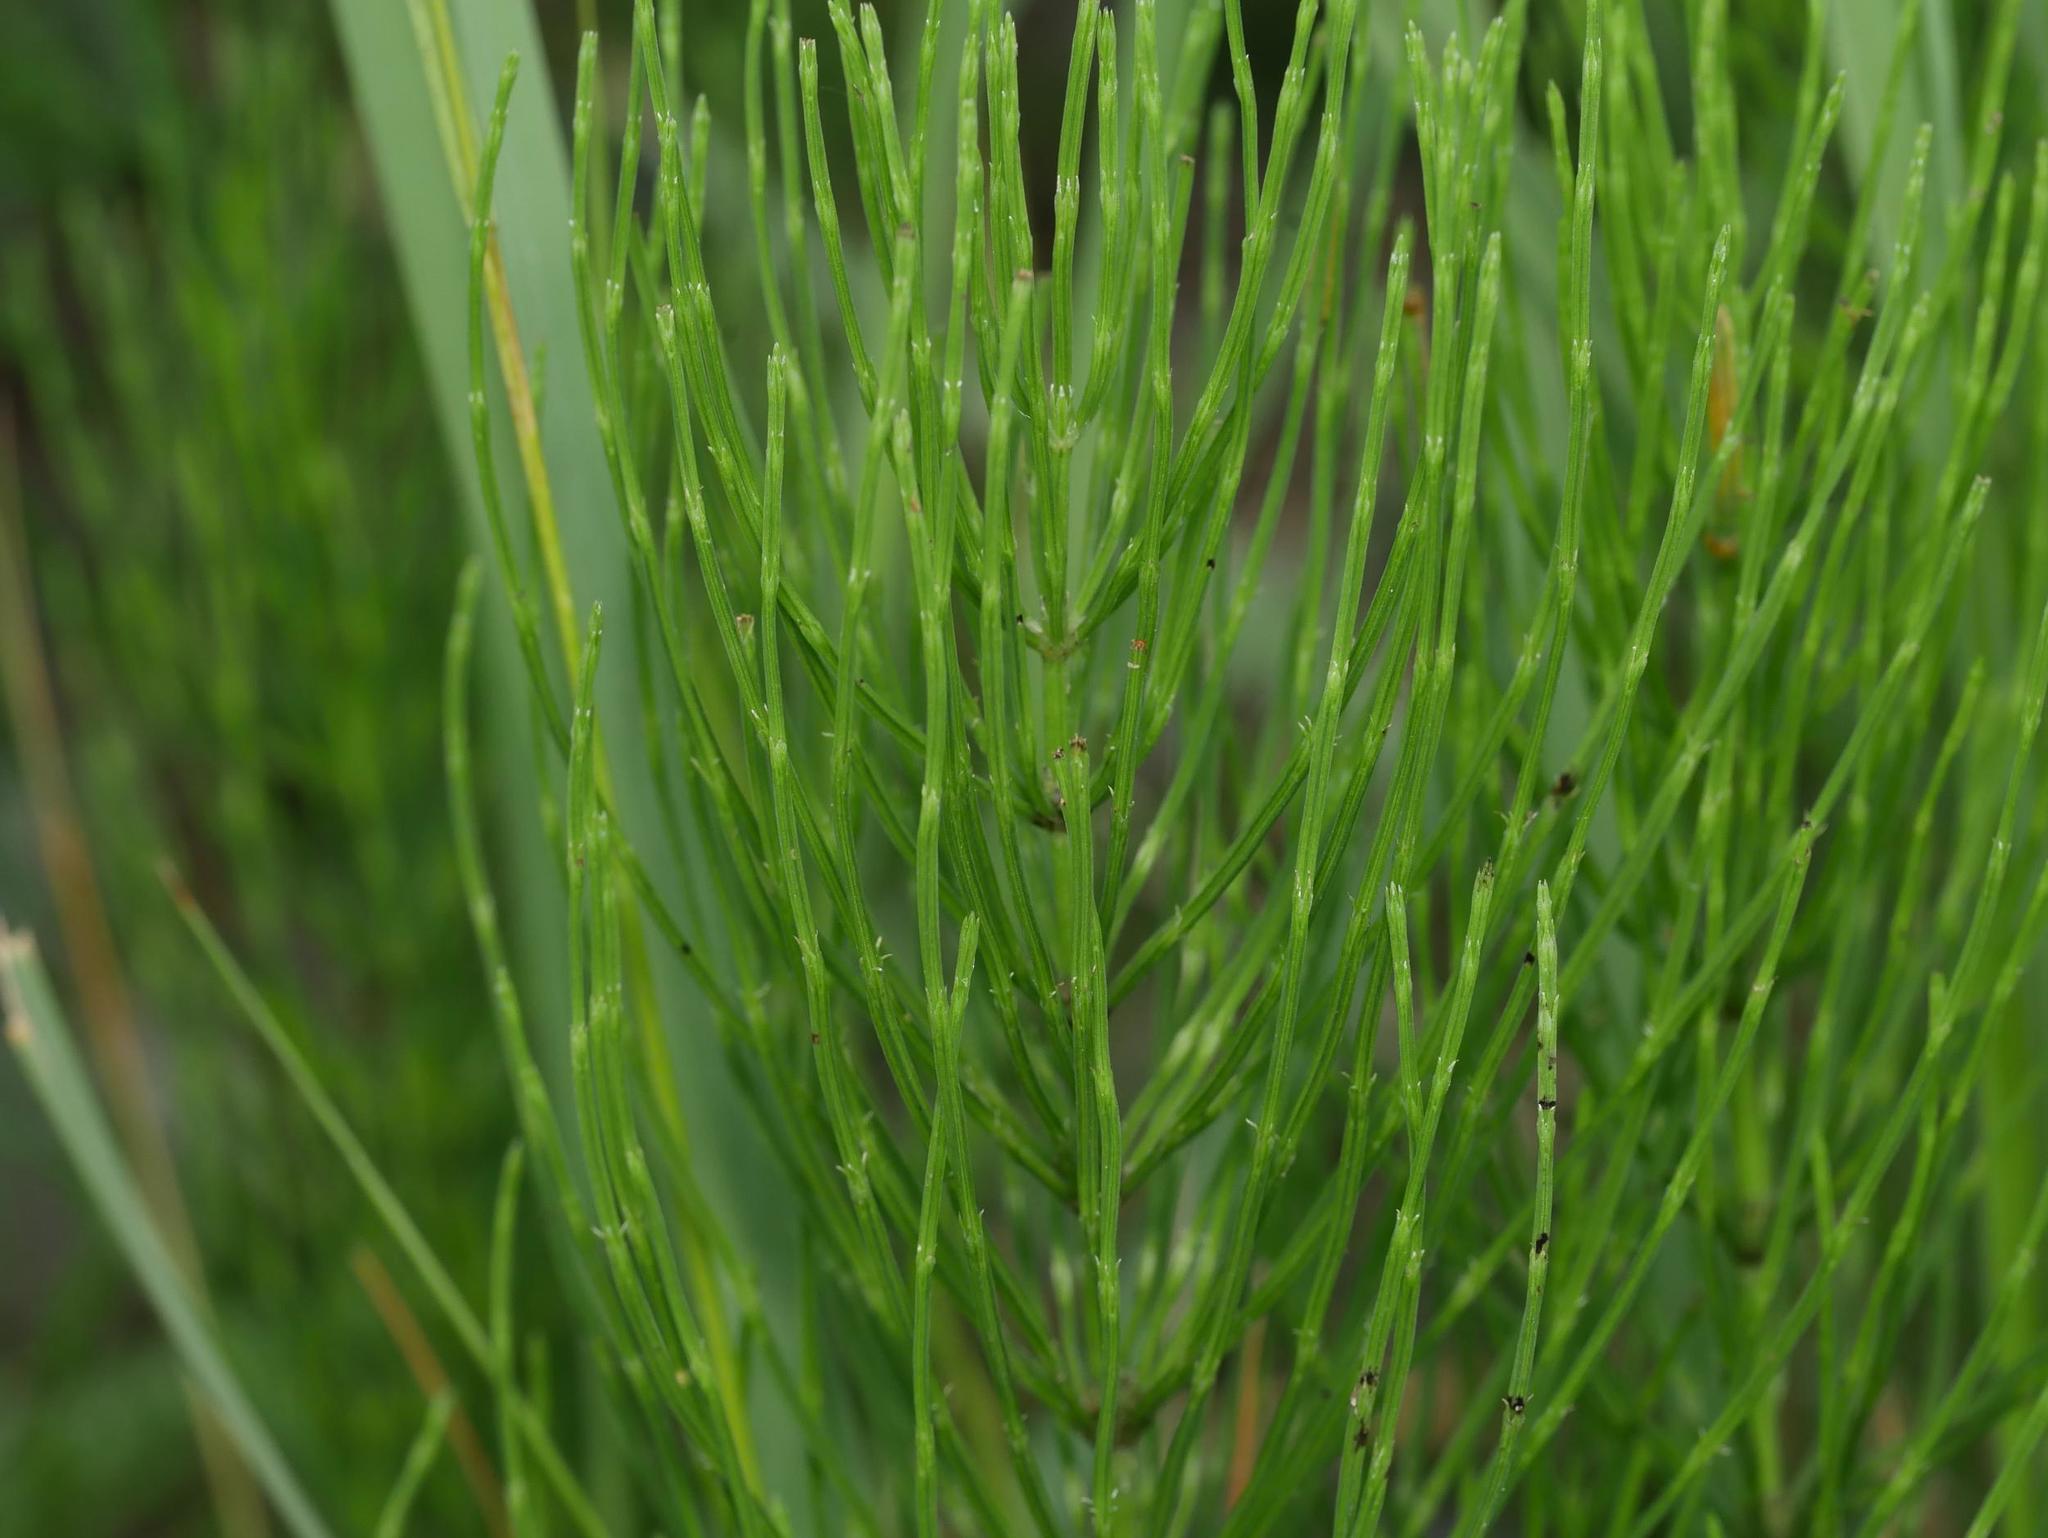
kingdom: Plantae
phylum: Tracheophyta
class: Polypodiopsida
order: Equisetales
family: Equisetaceae
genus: Equisetum
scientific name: Equisetum arvense
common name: Field horsetail
